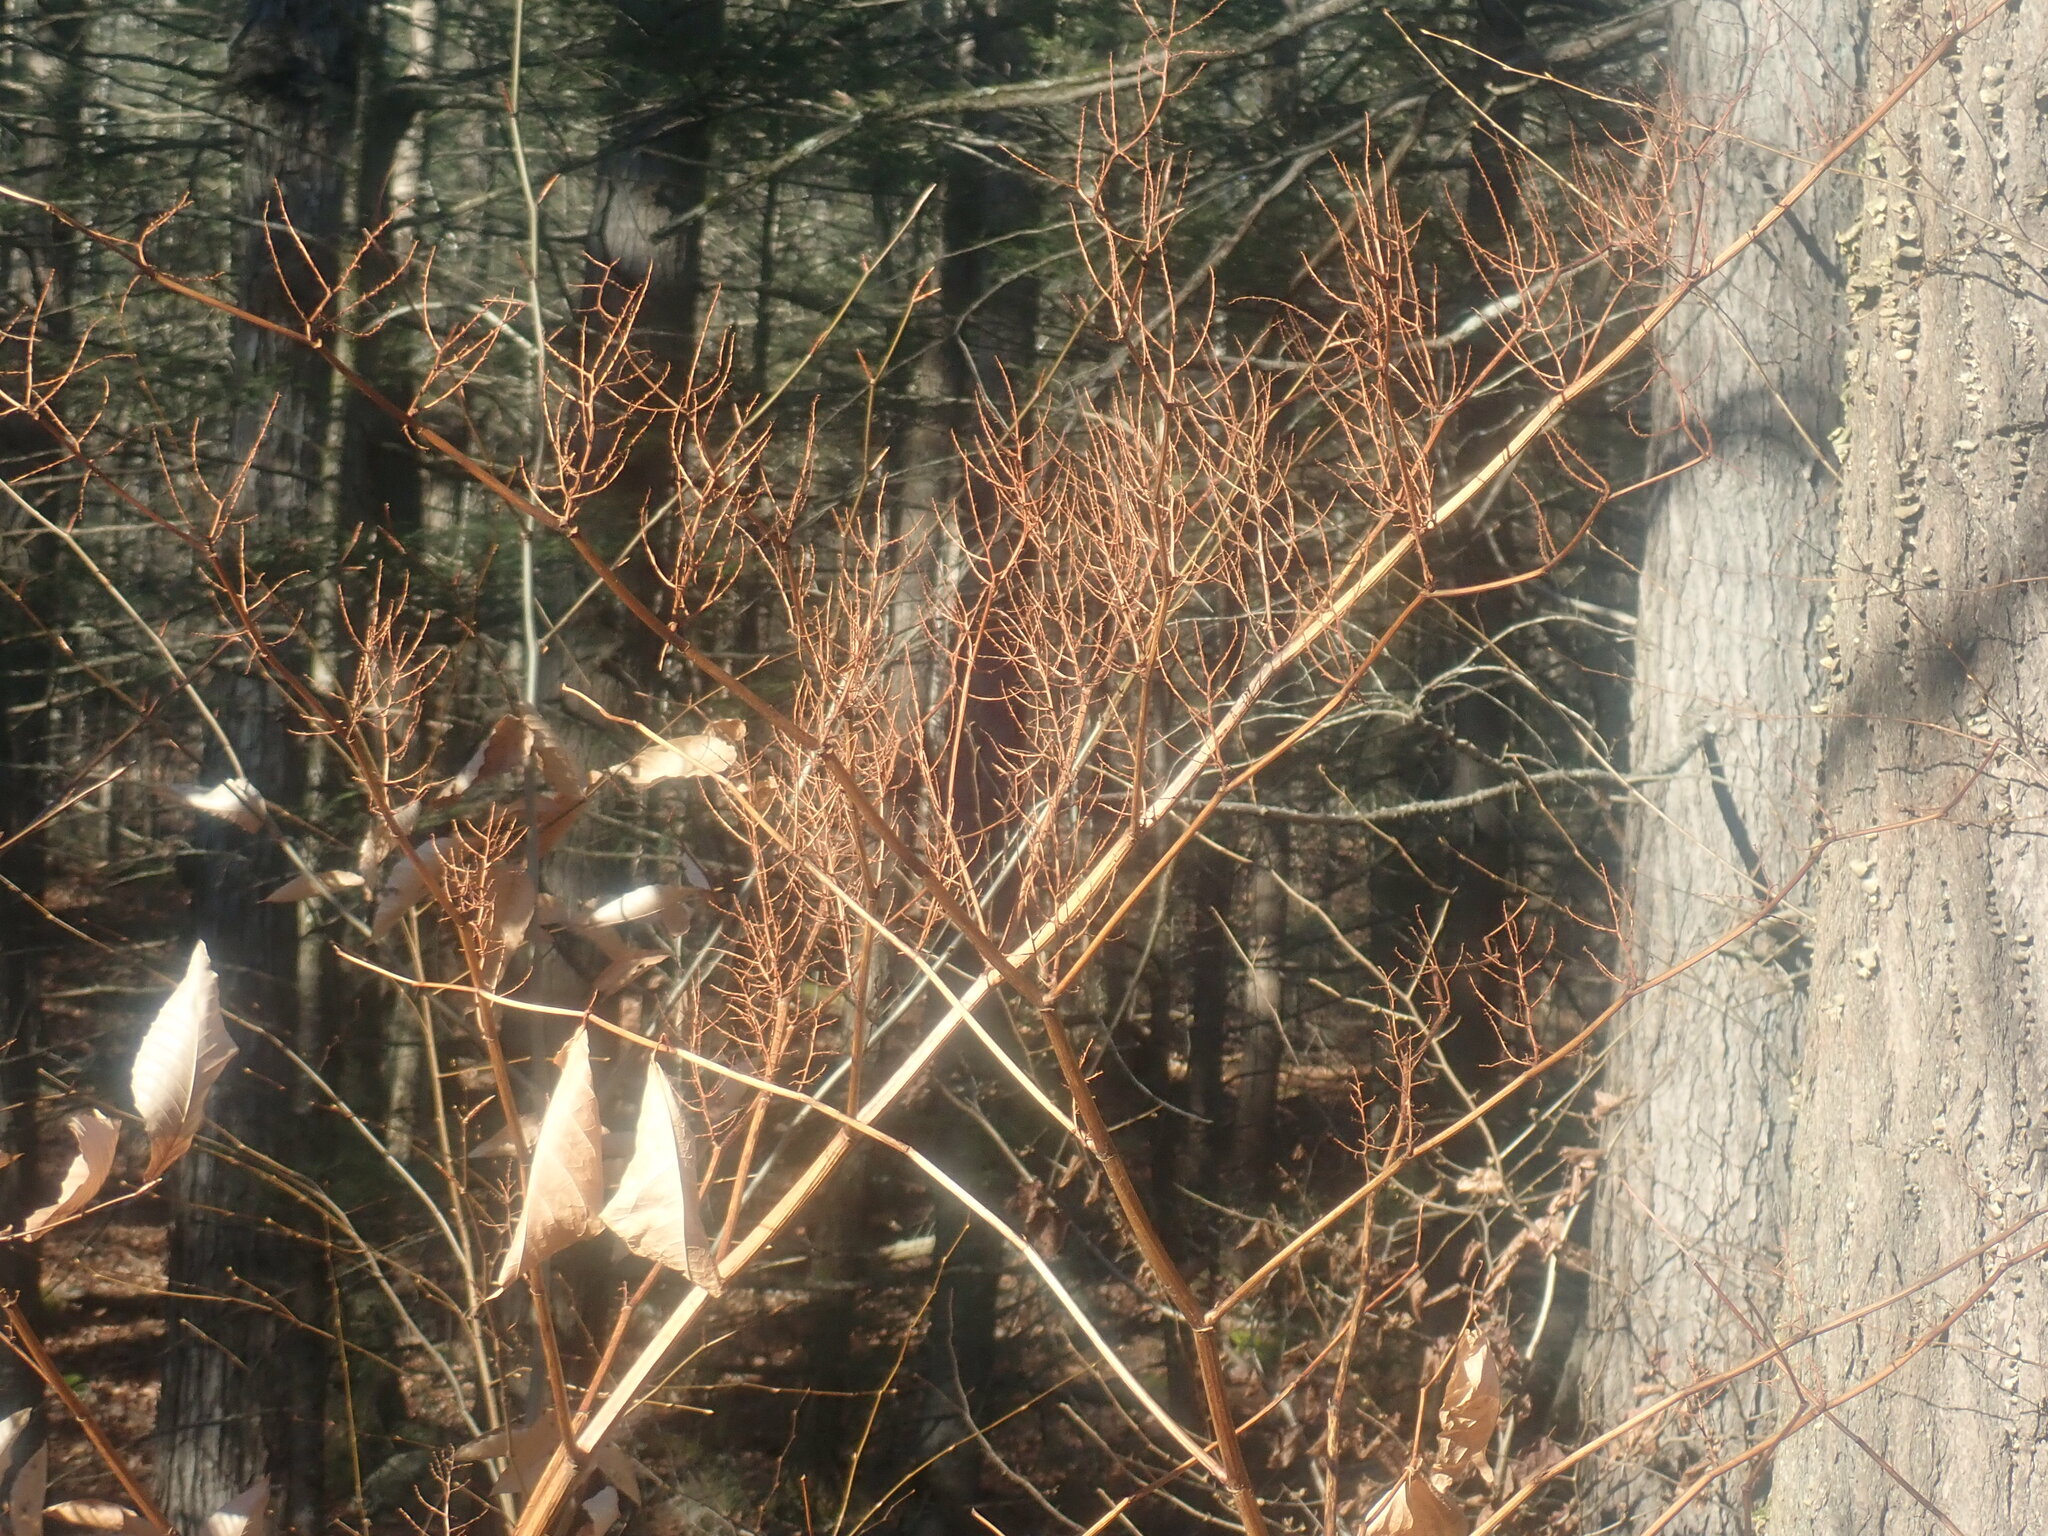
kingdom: Plantae
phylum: Tracheophyta
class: Magnoliopsida
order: Caryophyllales
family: Polygonaceae
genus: Reynoutria
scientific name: Reynoutria
